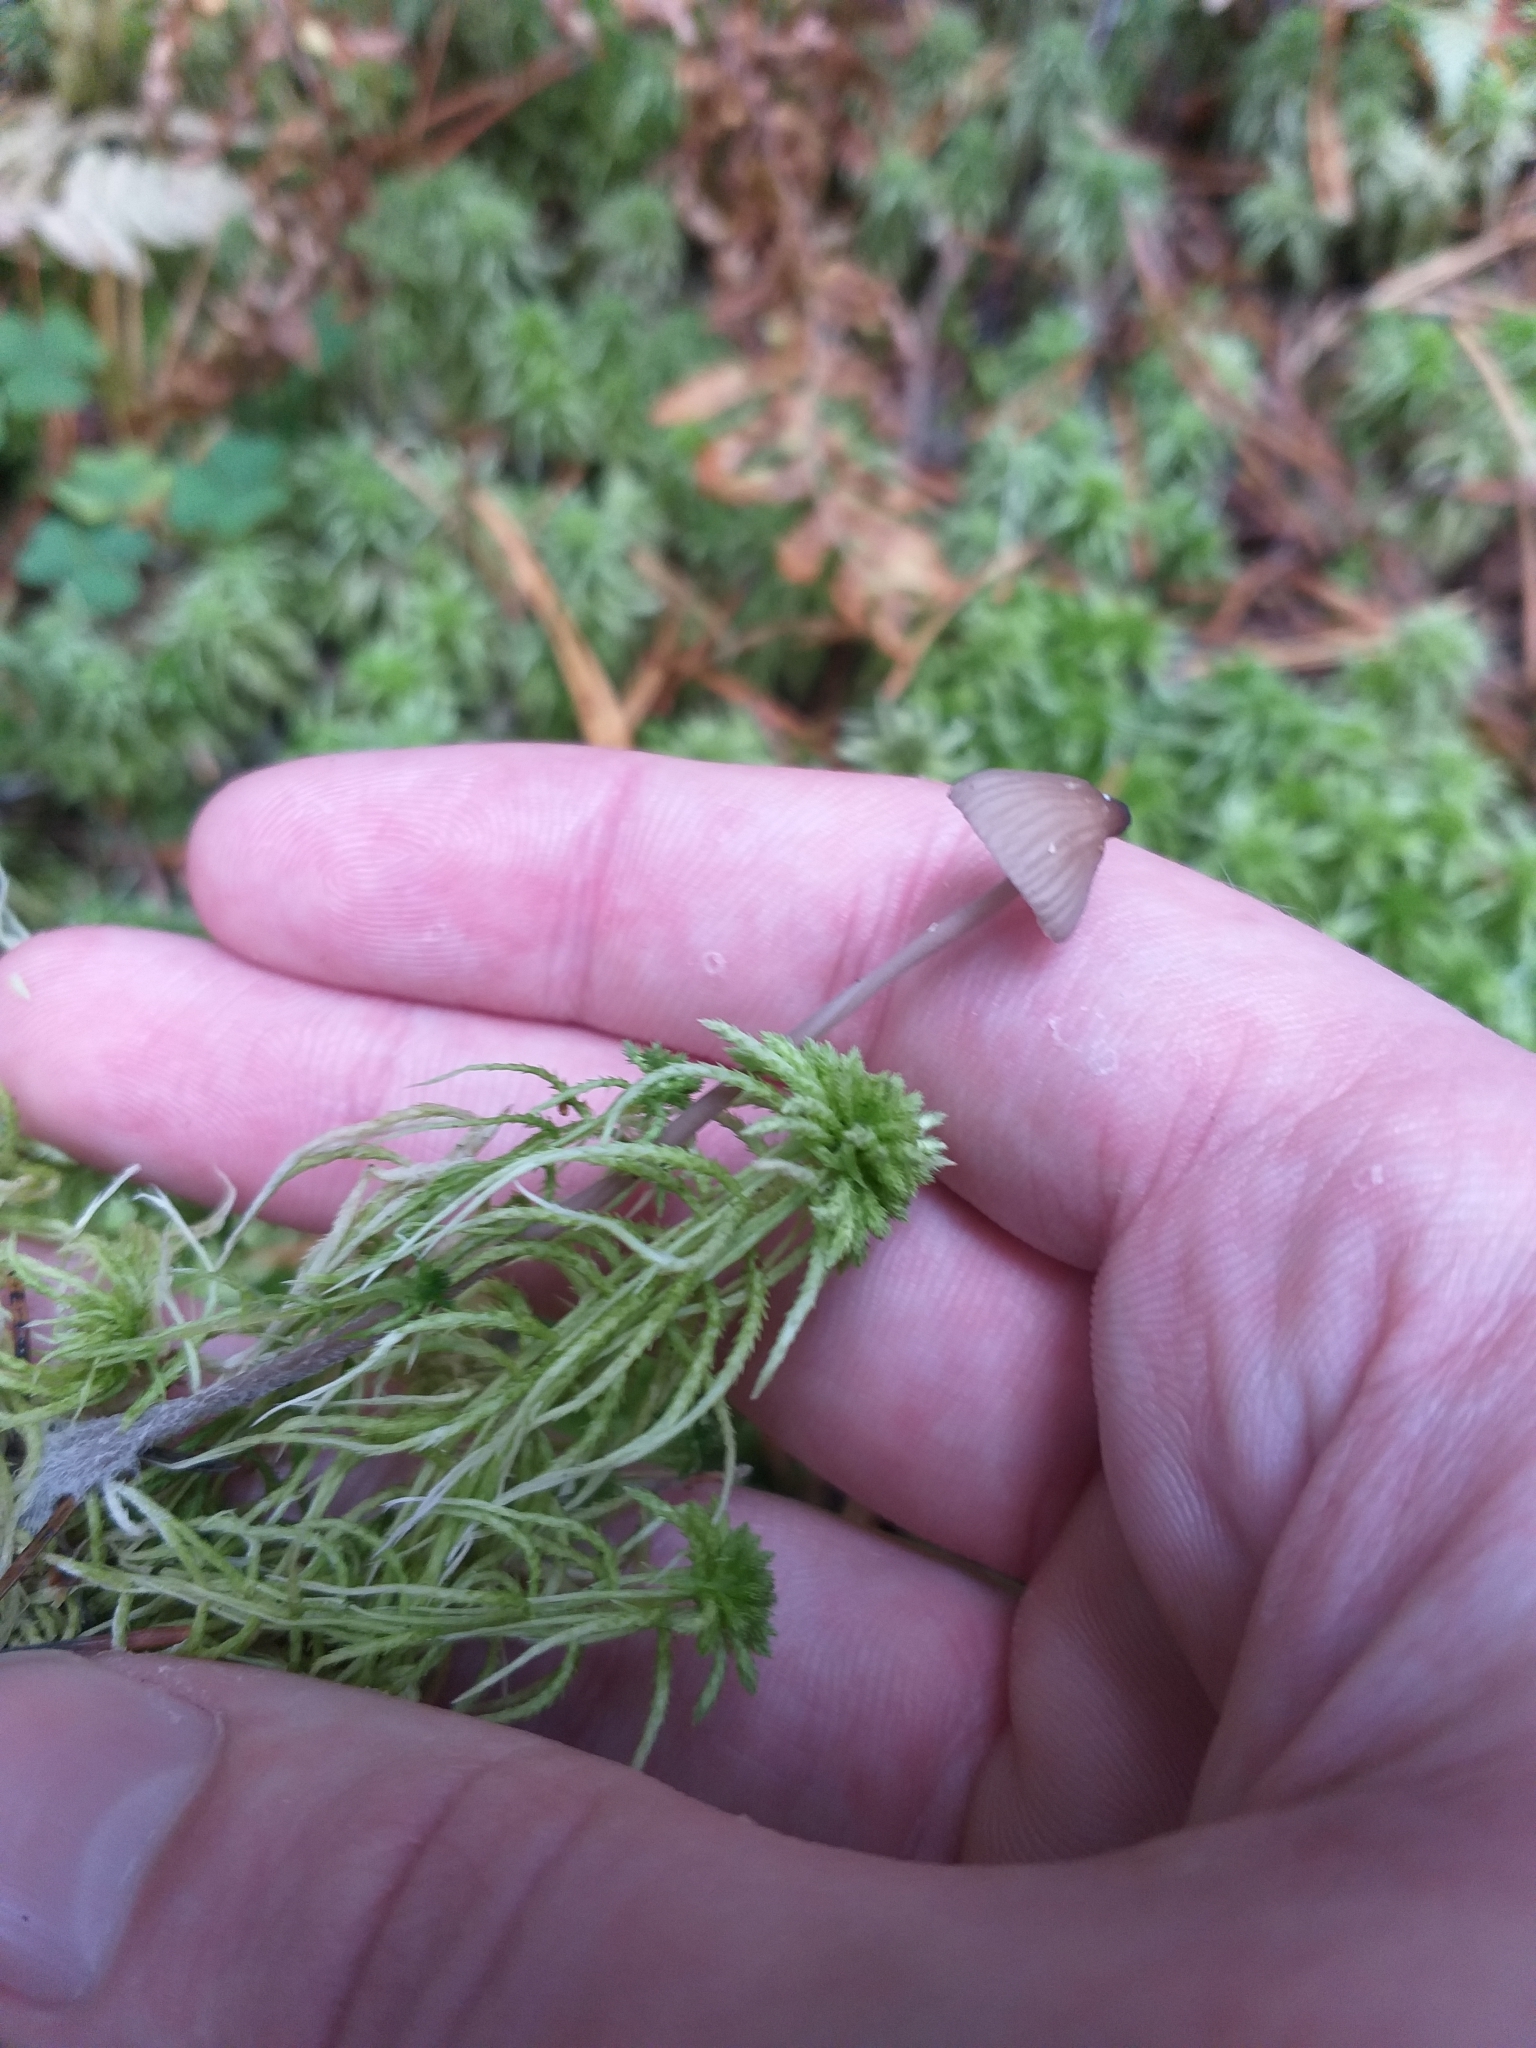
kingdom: Fungi
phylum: Basidiomycota
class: Agaricomycetes
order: Agaricales
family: Mycenaceae
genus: Mycena
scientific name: Mycena galopus
